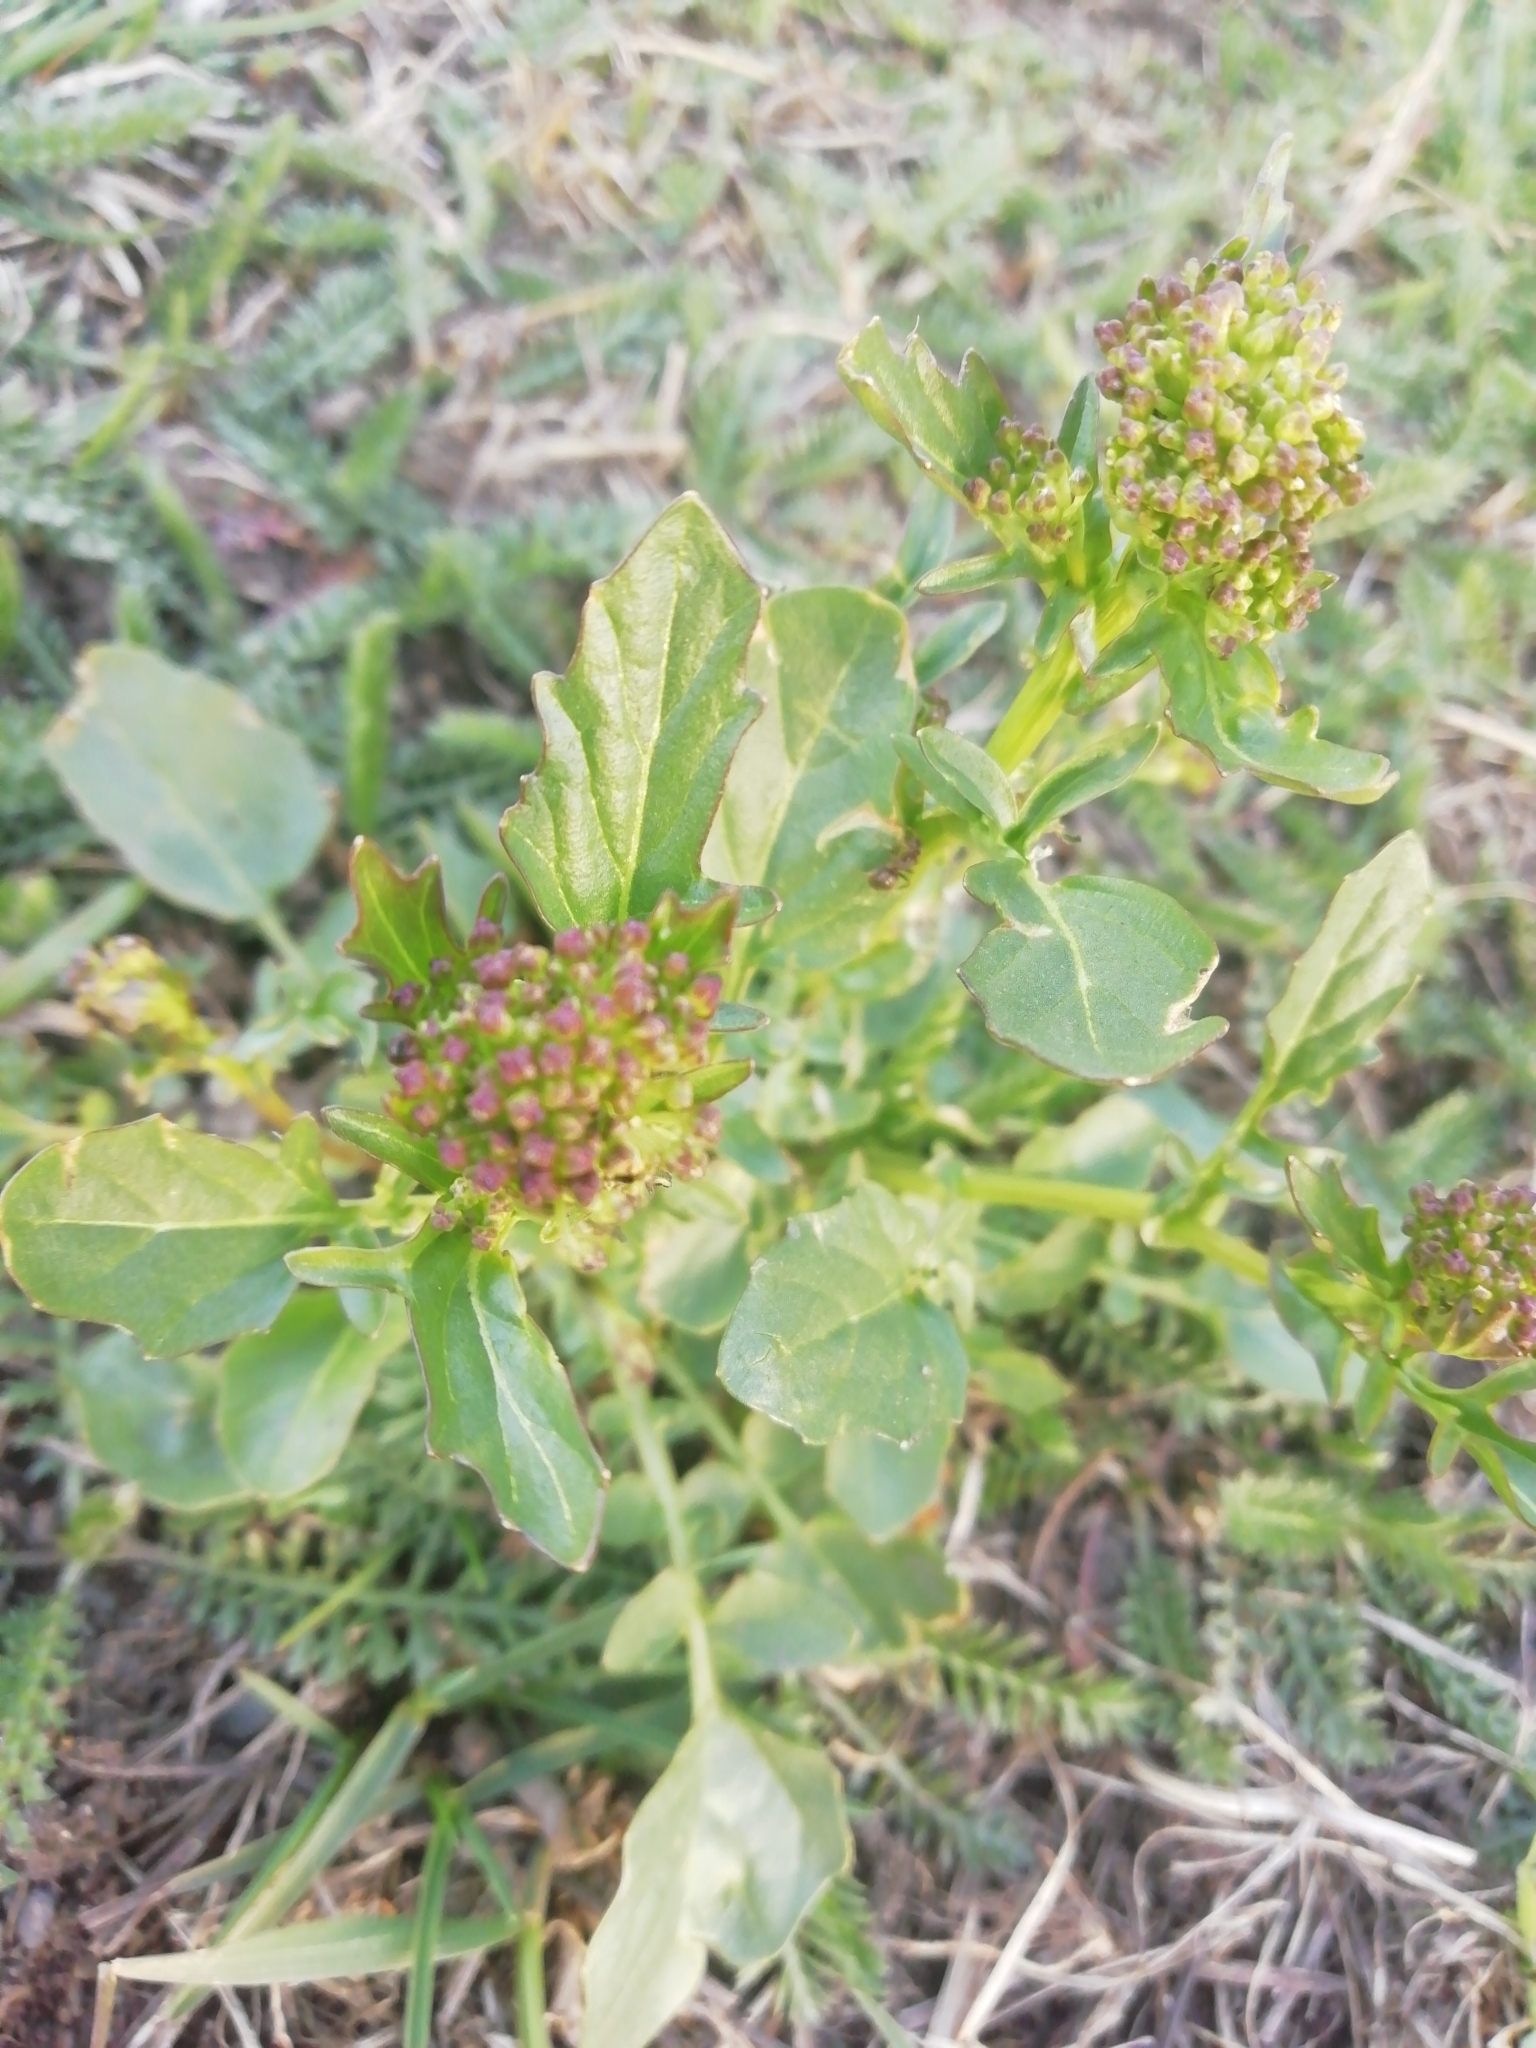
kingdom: Plantae
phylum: Tracheophyta
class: Magnoliopsida
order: Brassicales
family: Brassicaceae
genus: Barbarea
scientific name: Barbarea vulgaris
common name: Cressy-greens
